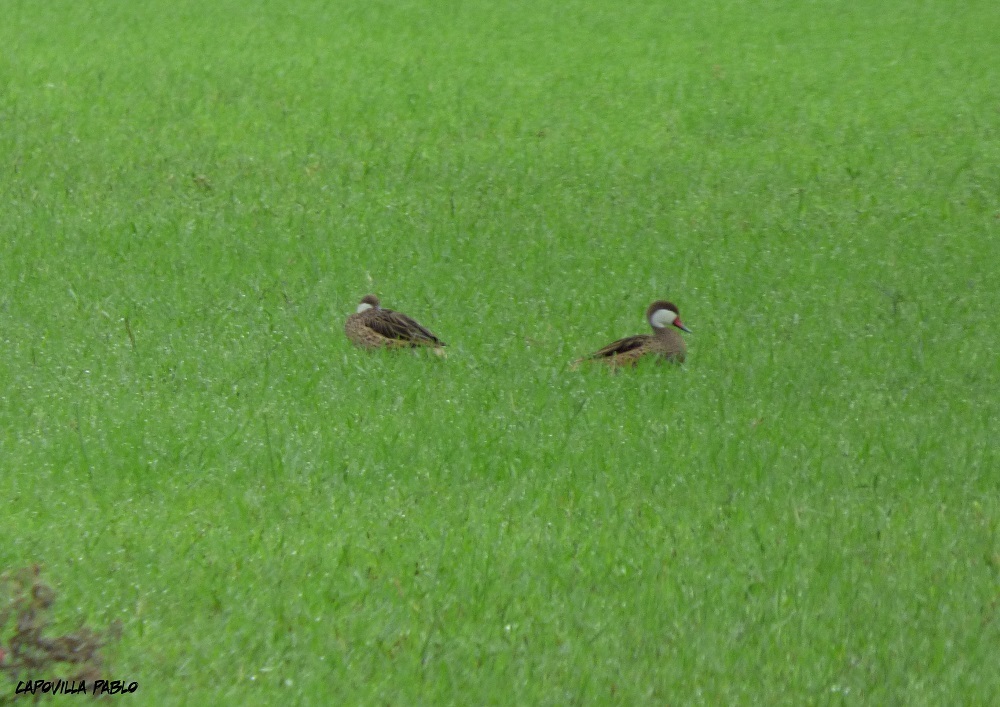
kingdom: Animalia
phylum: Chordata
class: Aves
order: Anseriformes
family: Anatidae
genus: Anas
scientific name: Anas bahamensis
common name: White-cheeked pintail
